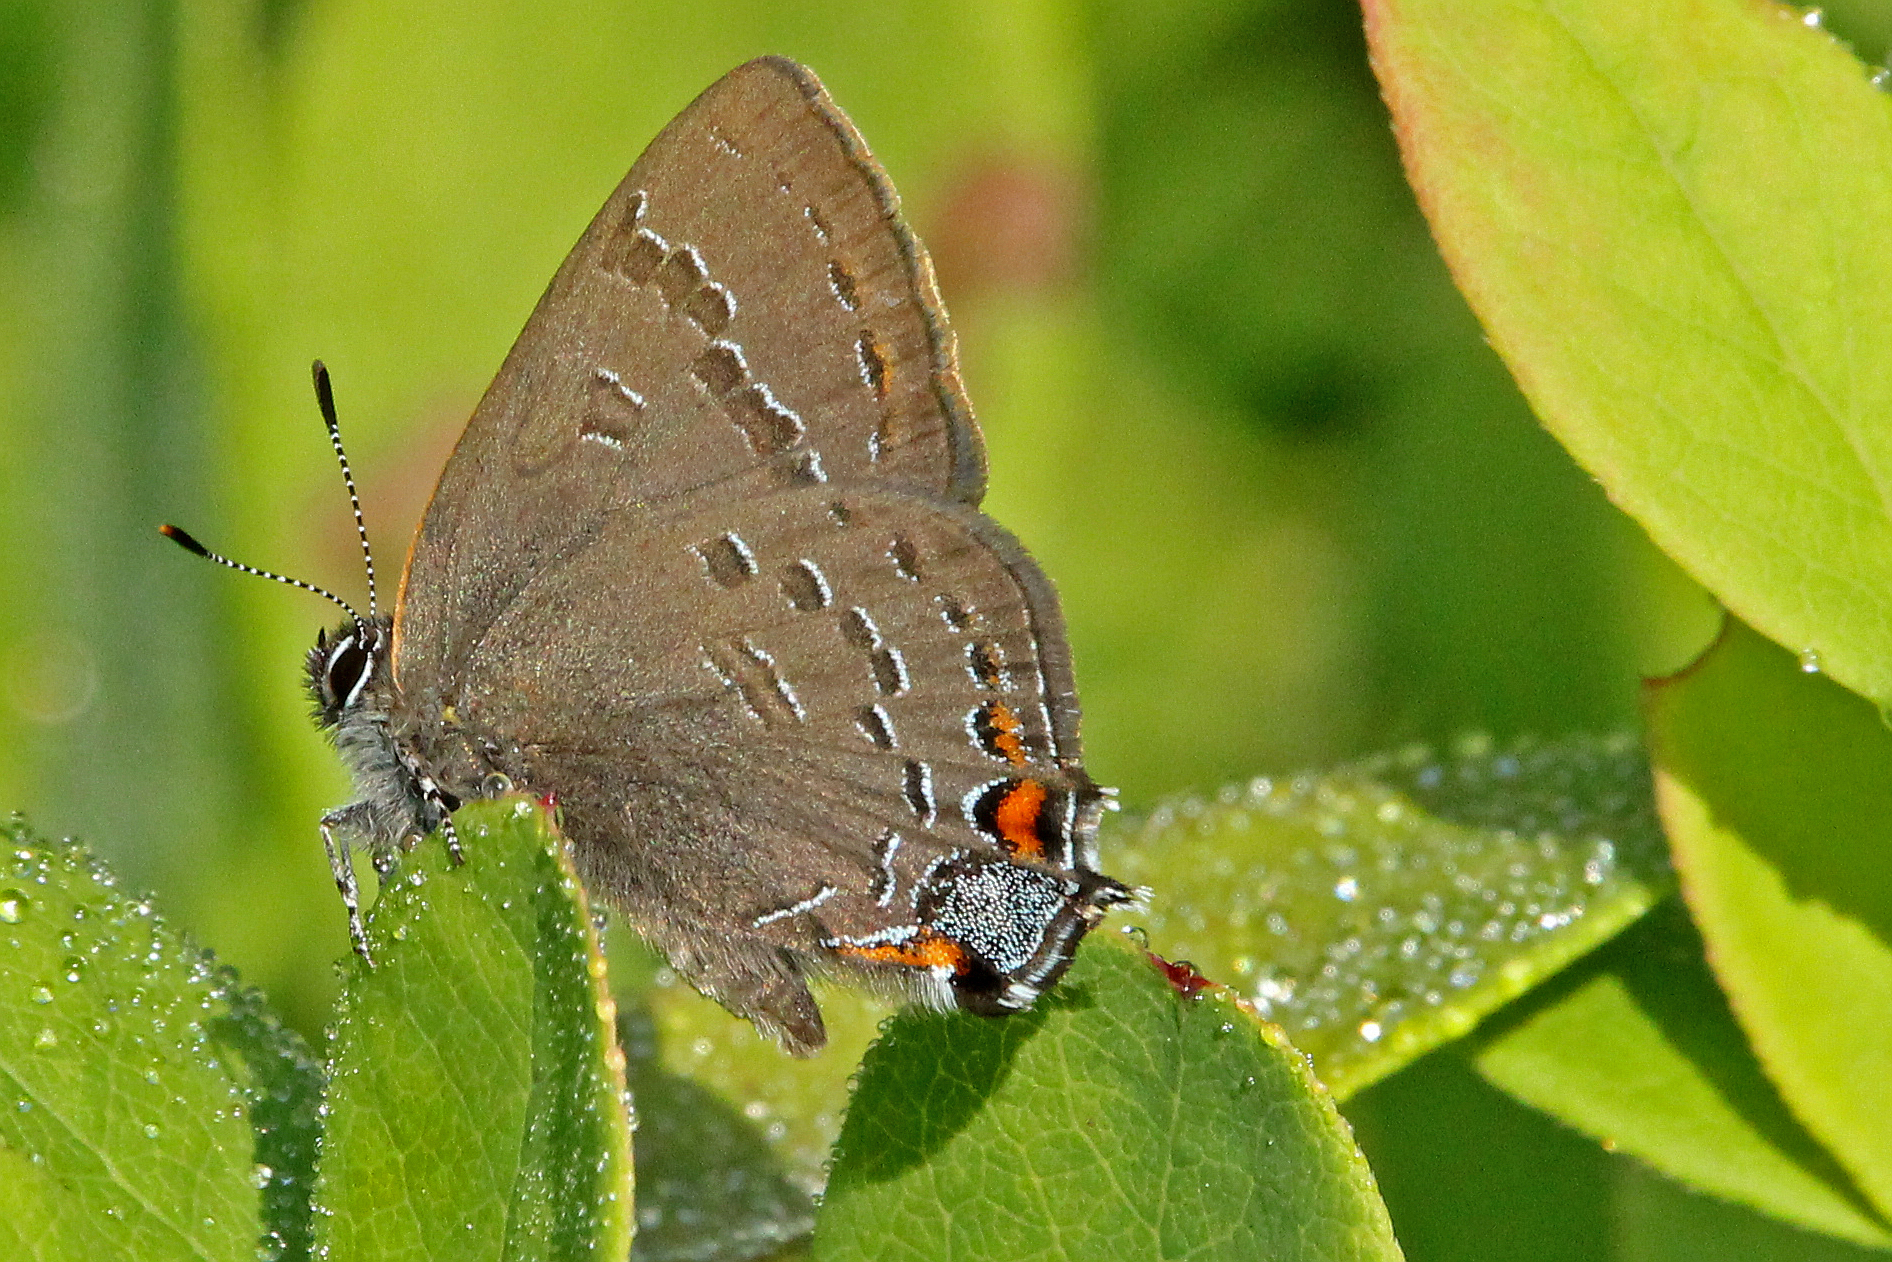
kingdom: Animalia
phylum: Arthropoda
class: Insecta
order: Lepidoptera
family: Lycaenidae
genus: Satyrium
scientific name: Satyrium calanus
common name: Banded hairstreak
